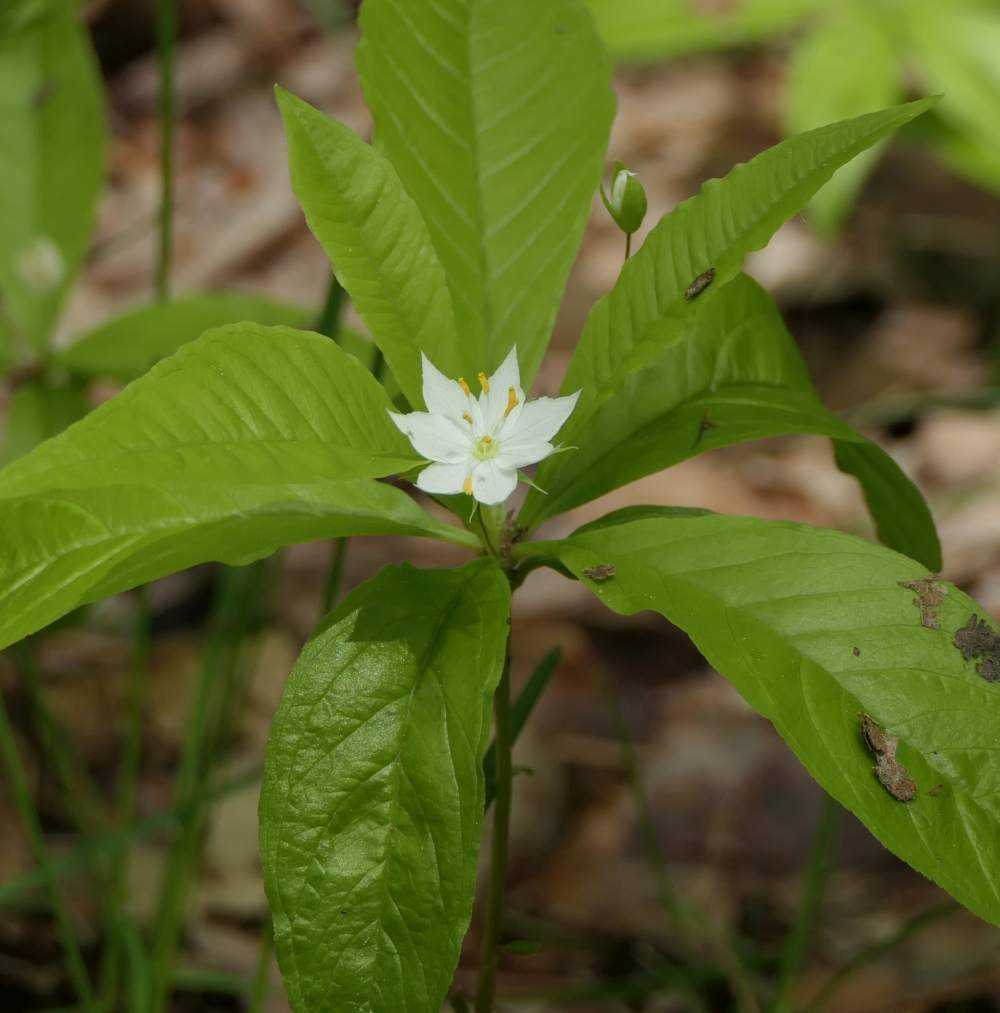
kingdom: Plantae
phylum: Tracheophyta
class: Magnoliopsida
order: Ericales
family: Primulaceae
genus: Lysimachia
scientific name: Lysimachia borealis
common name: American starflower
